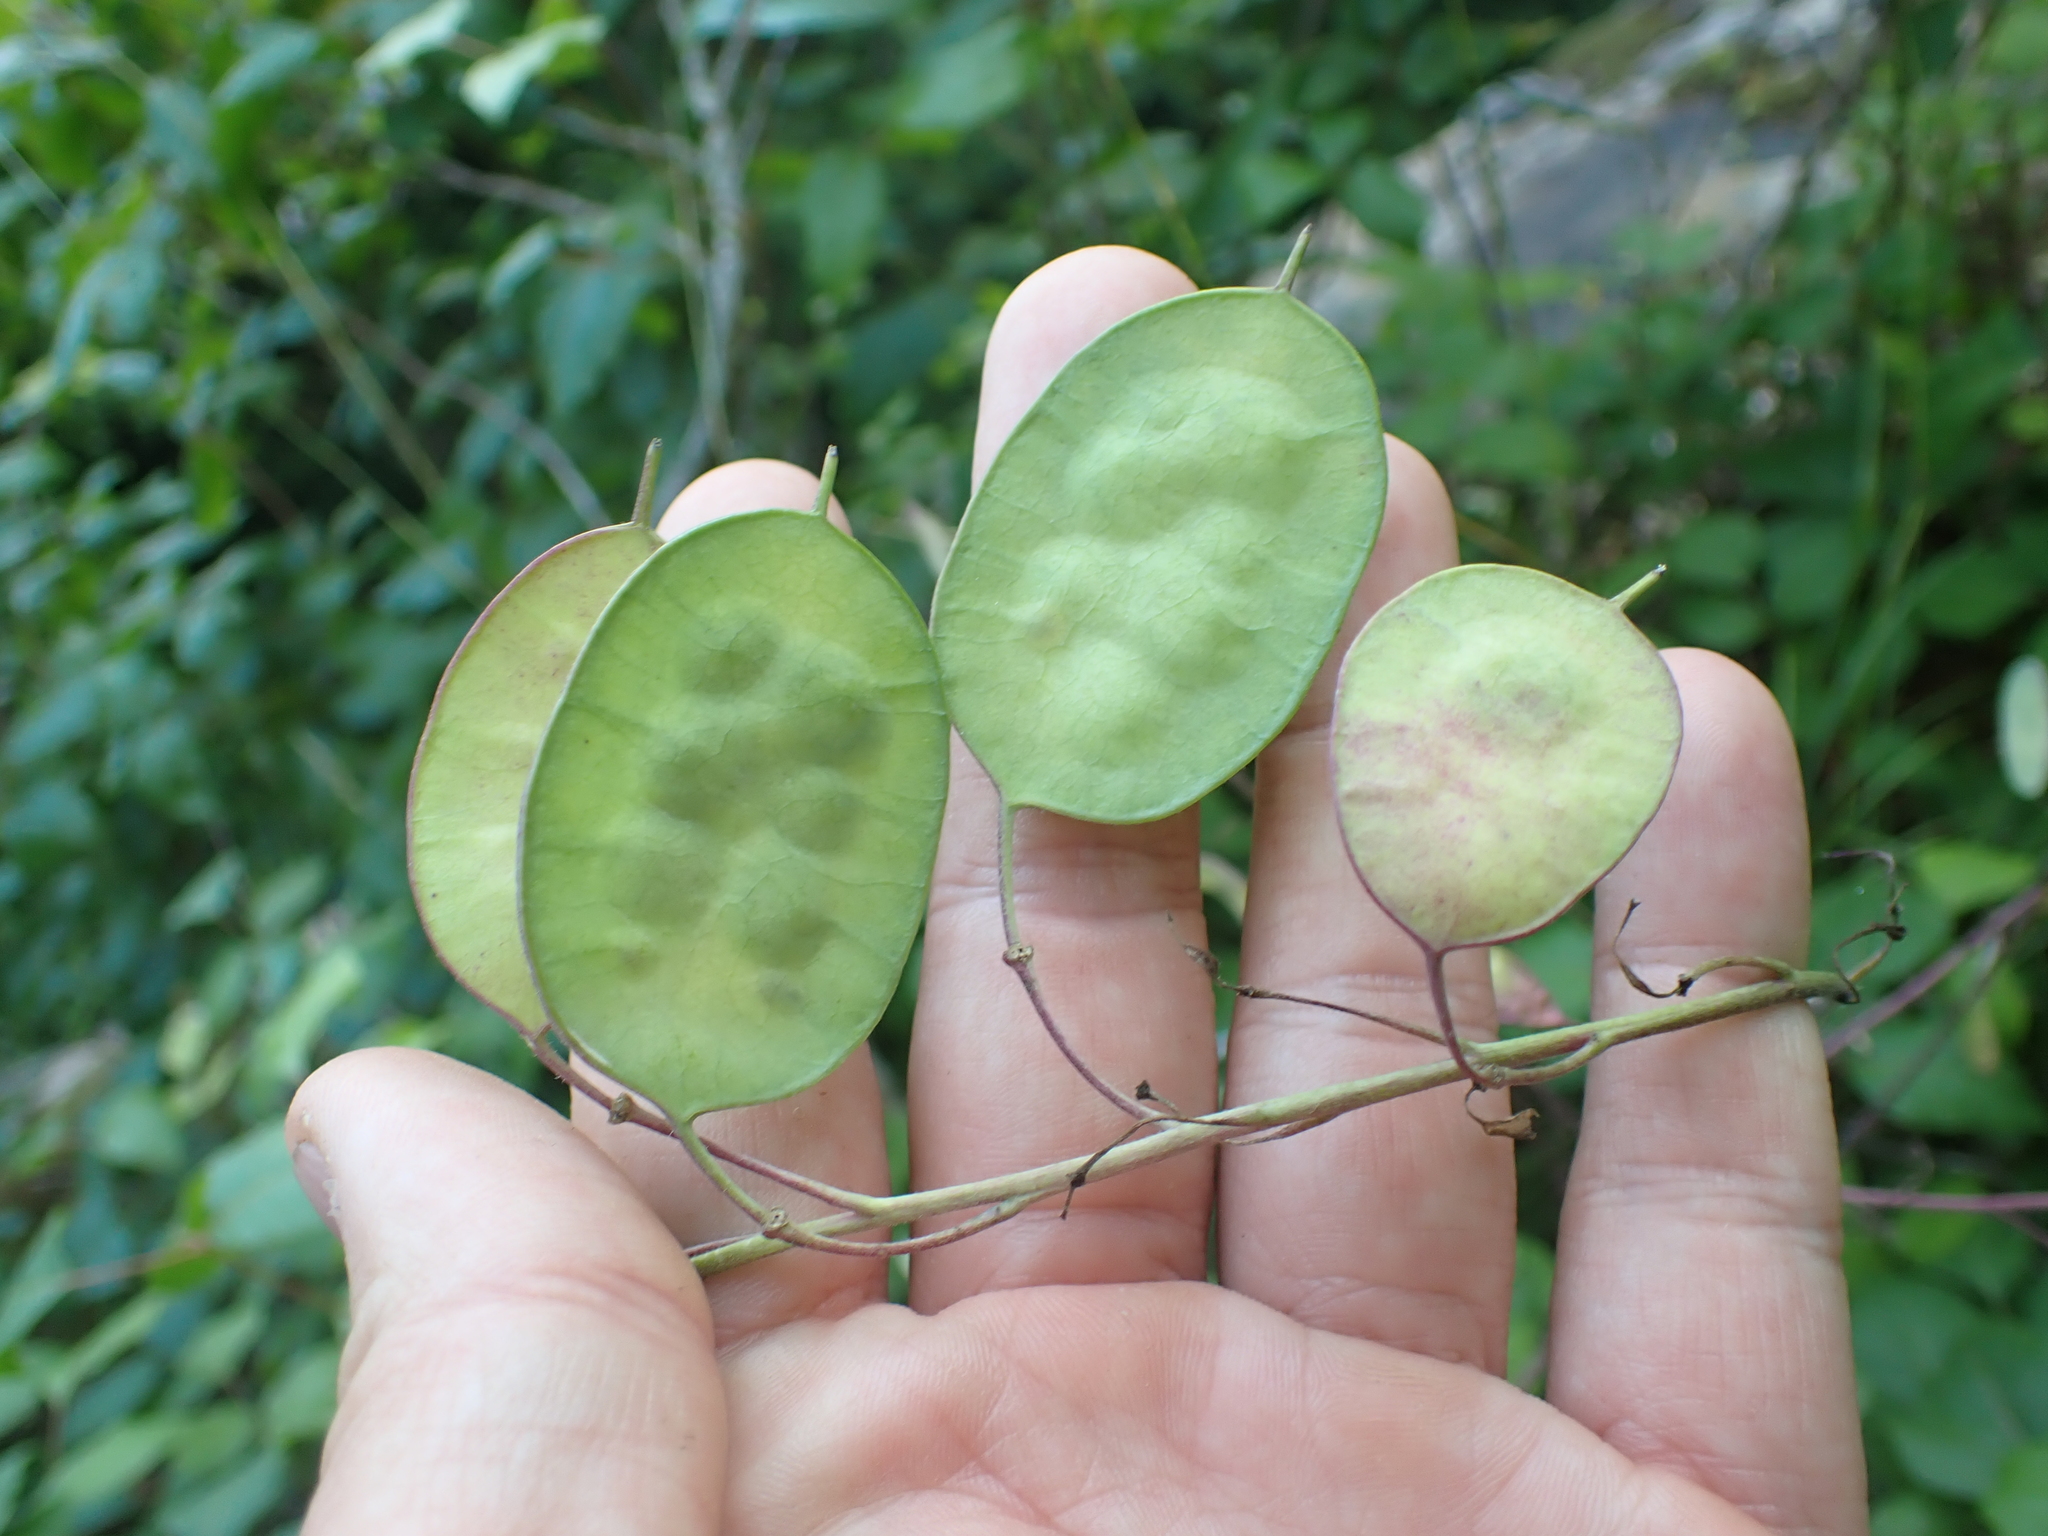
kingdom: Plantae
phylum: Tracheophyta
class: Magnoliopsida
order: Brassicales
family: Brassicaceae
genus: Lunaria
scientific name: Lunaria annua
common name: Honesty
